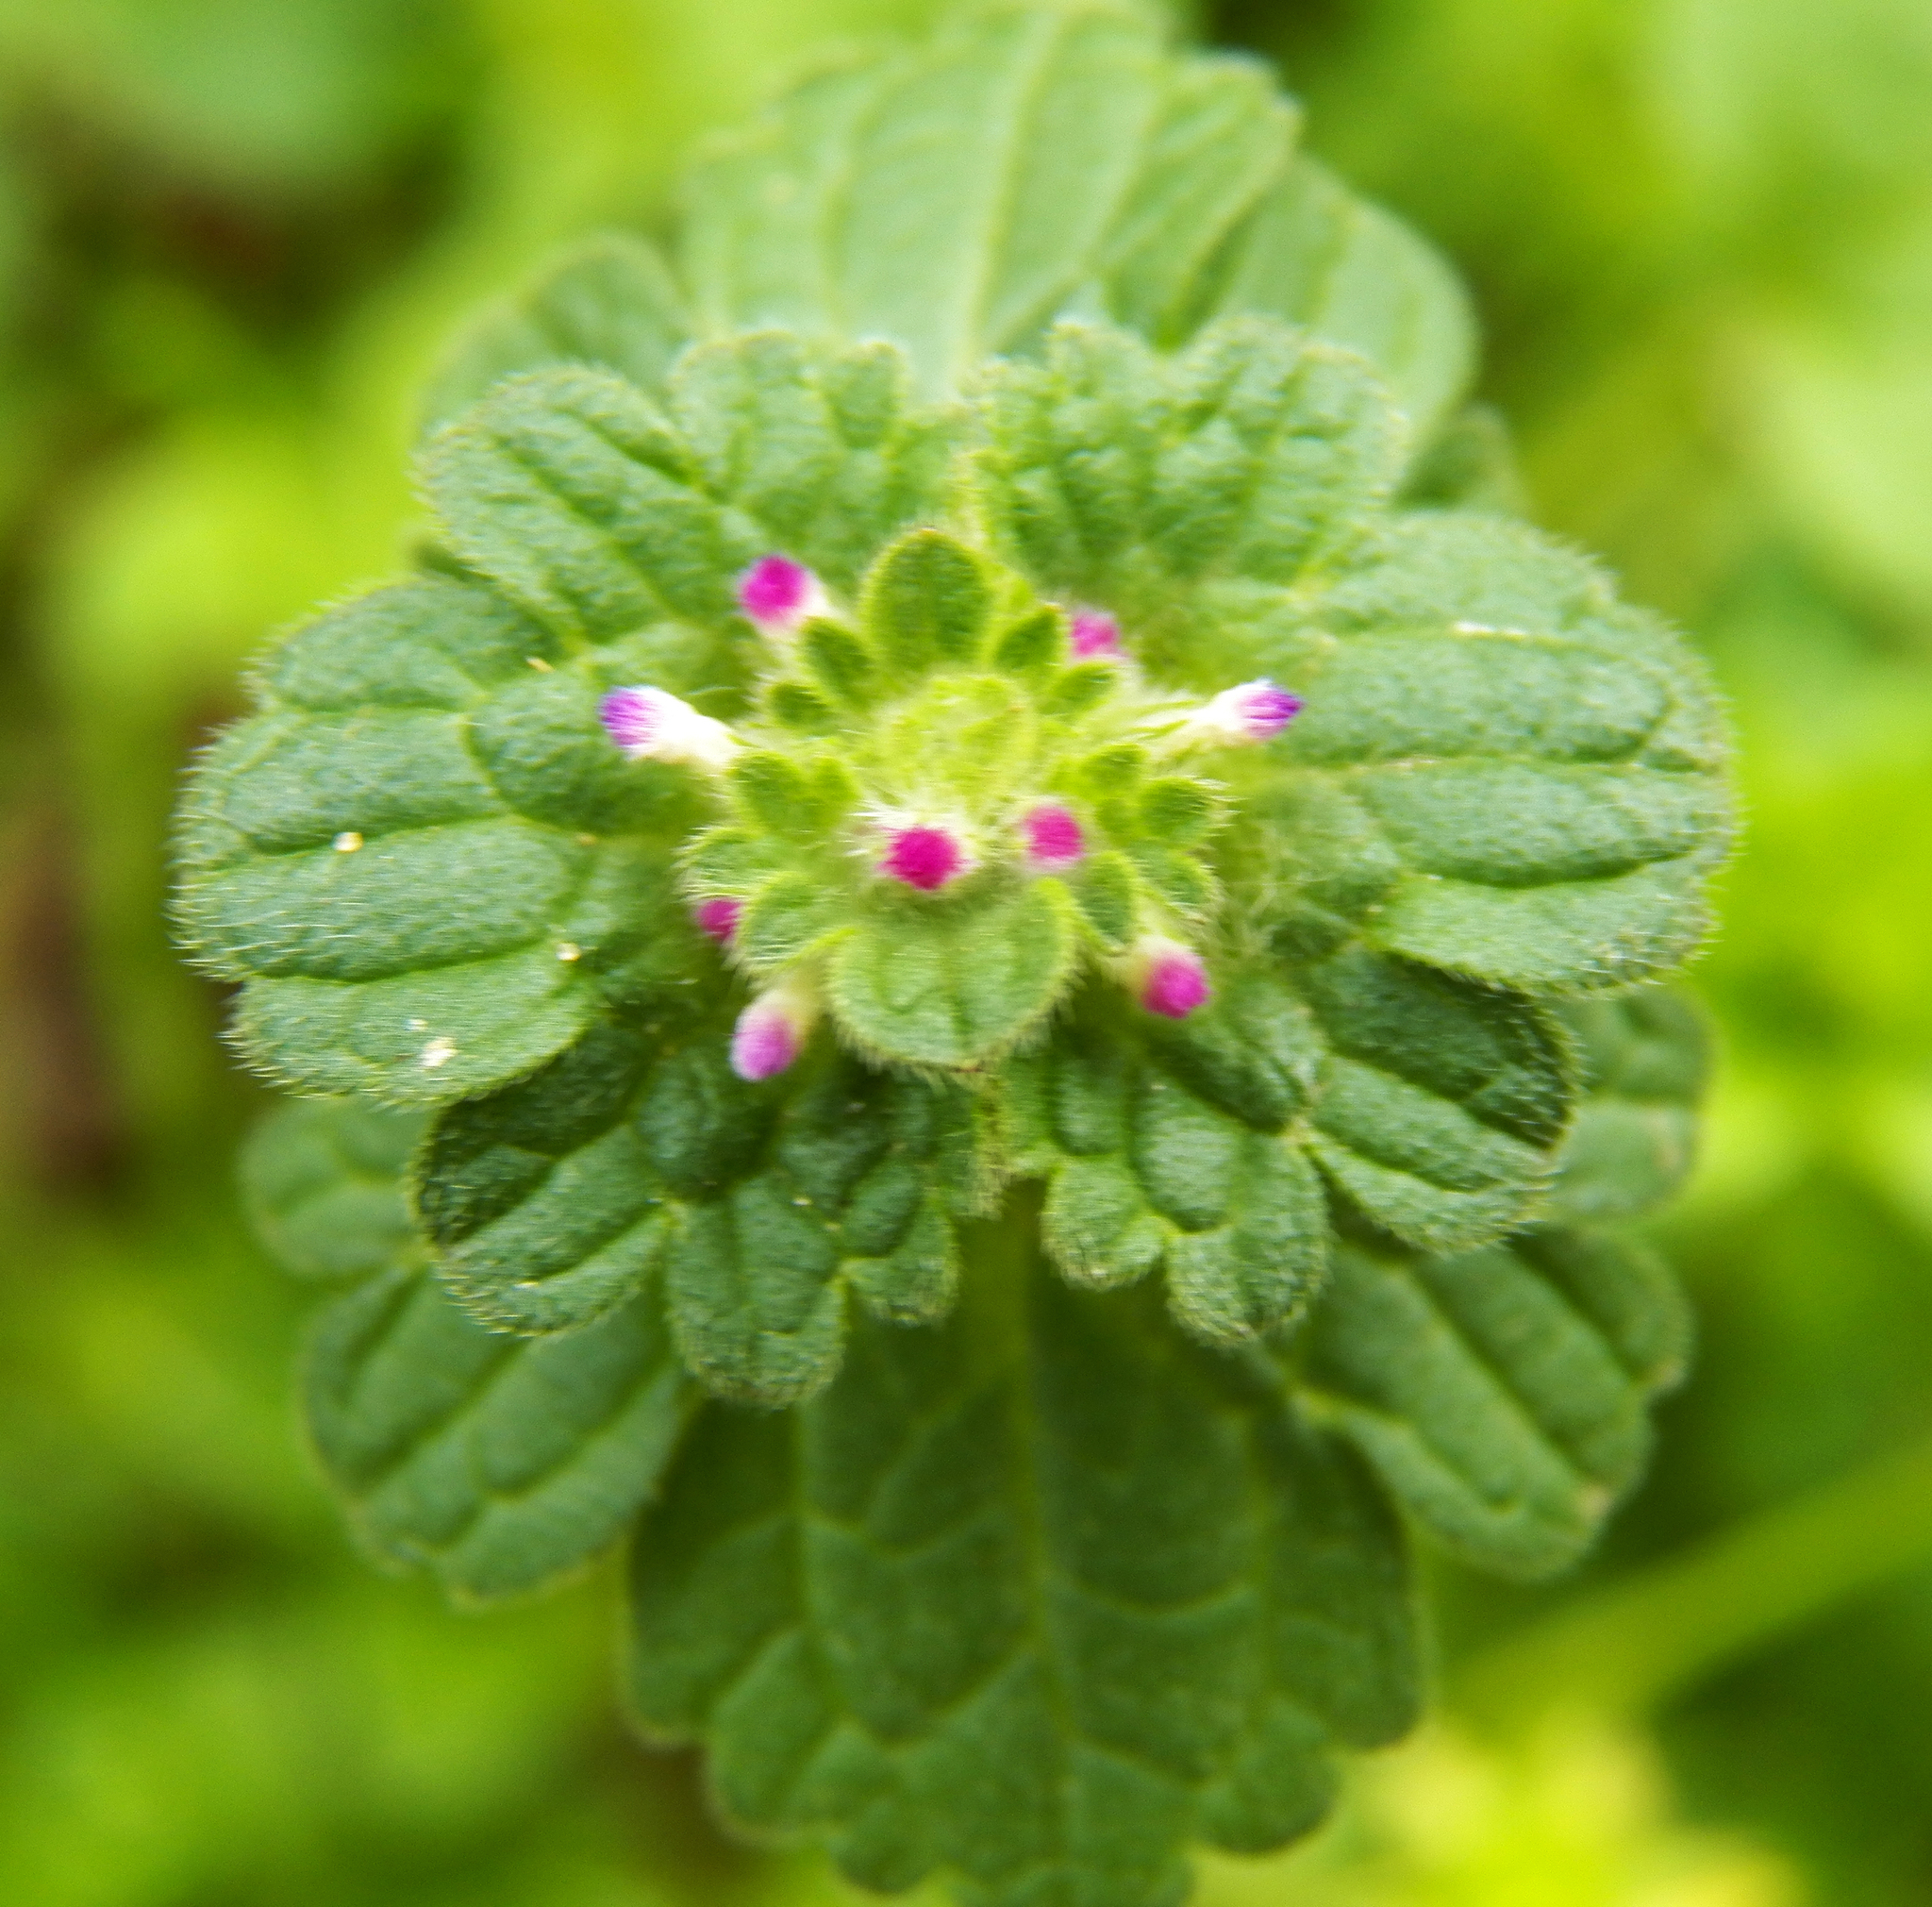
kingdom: Plantae
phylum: Tracheophyta
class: Magnoliopsida
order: Lamiales
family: Lamiaceae
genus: Lamium
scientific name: Lamium amplexicaule
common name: Henbit dead-nettle
